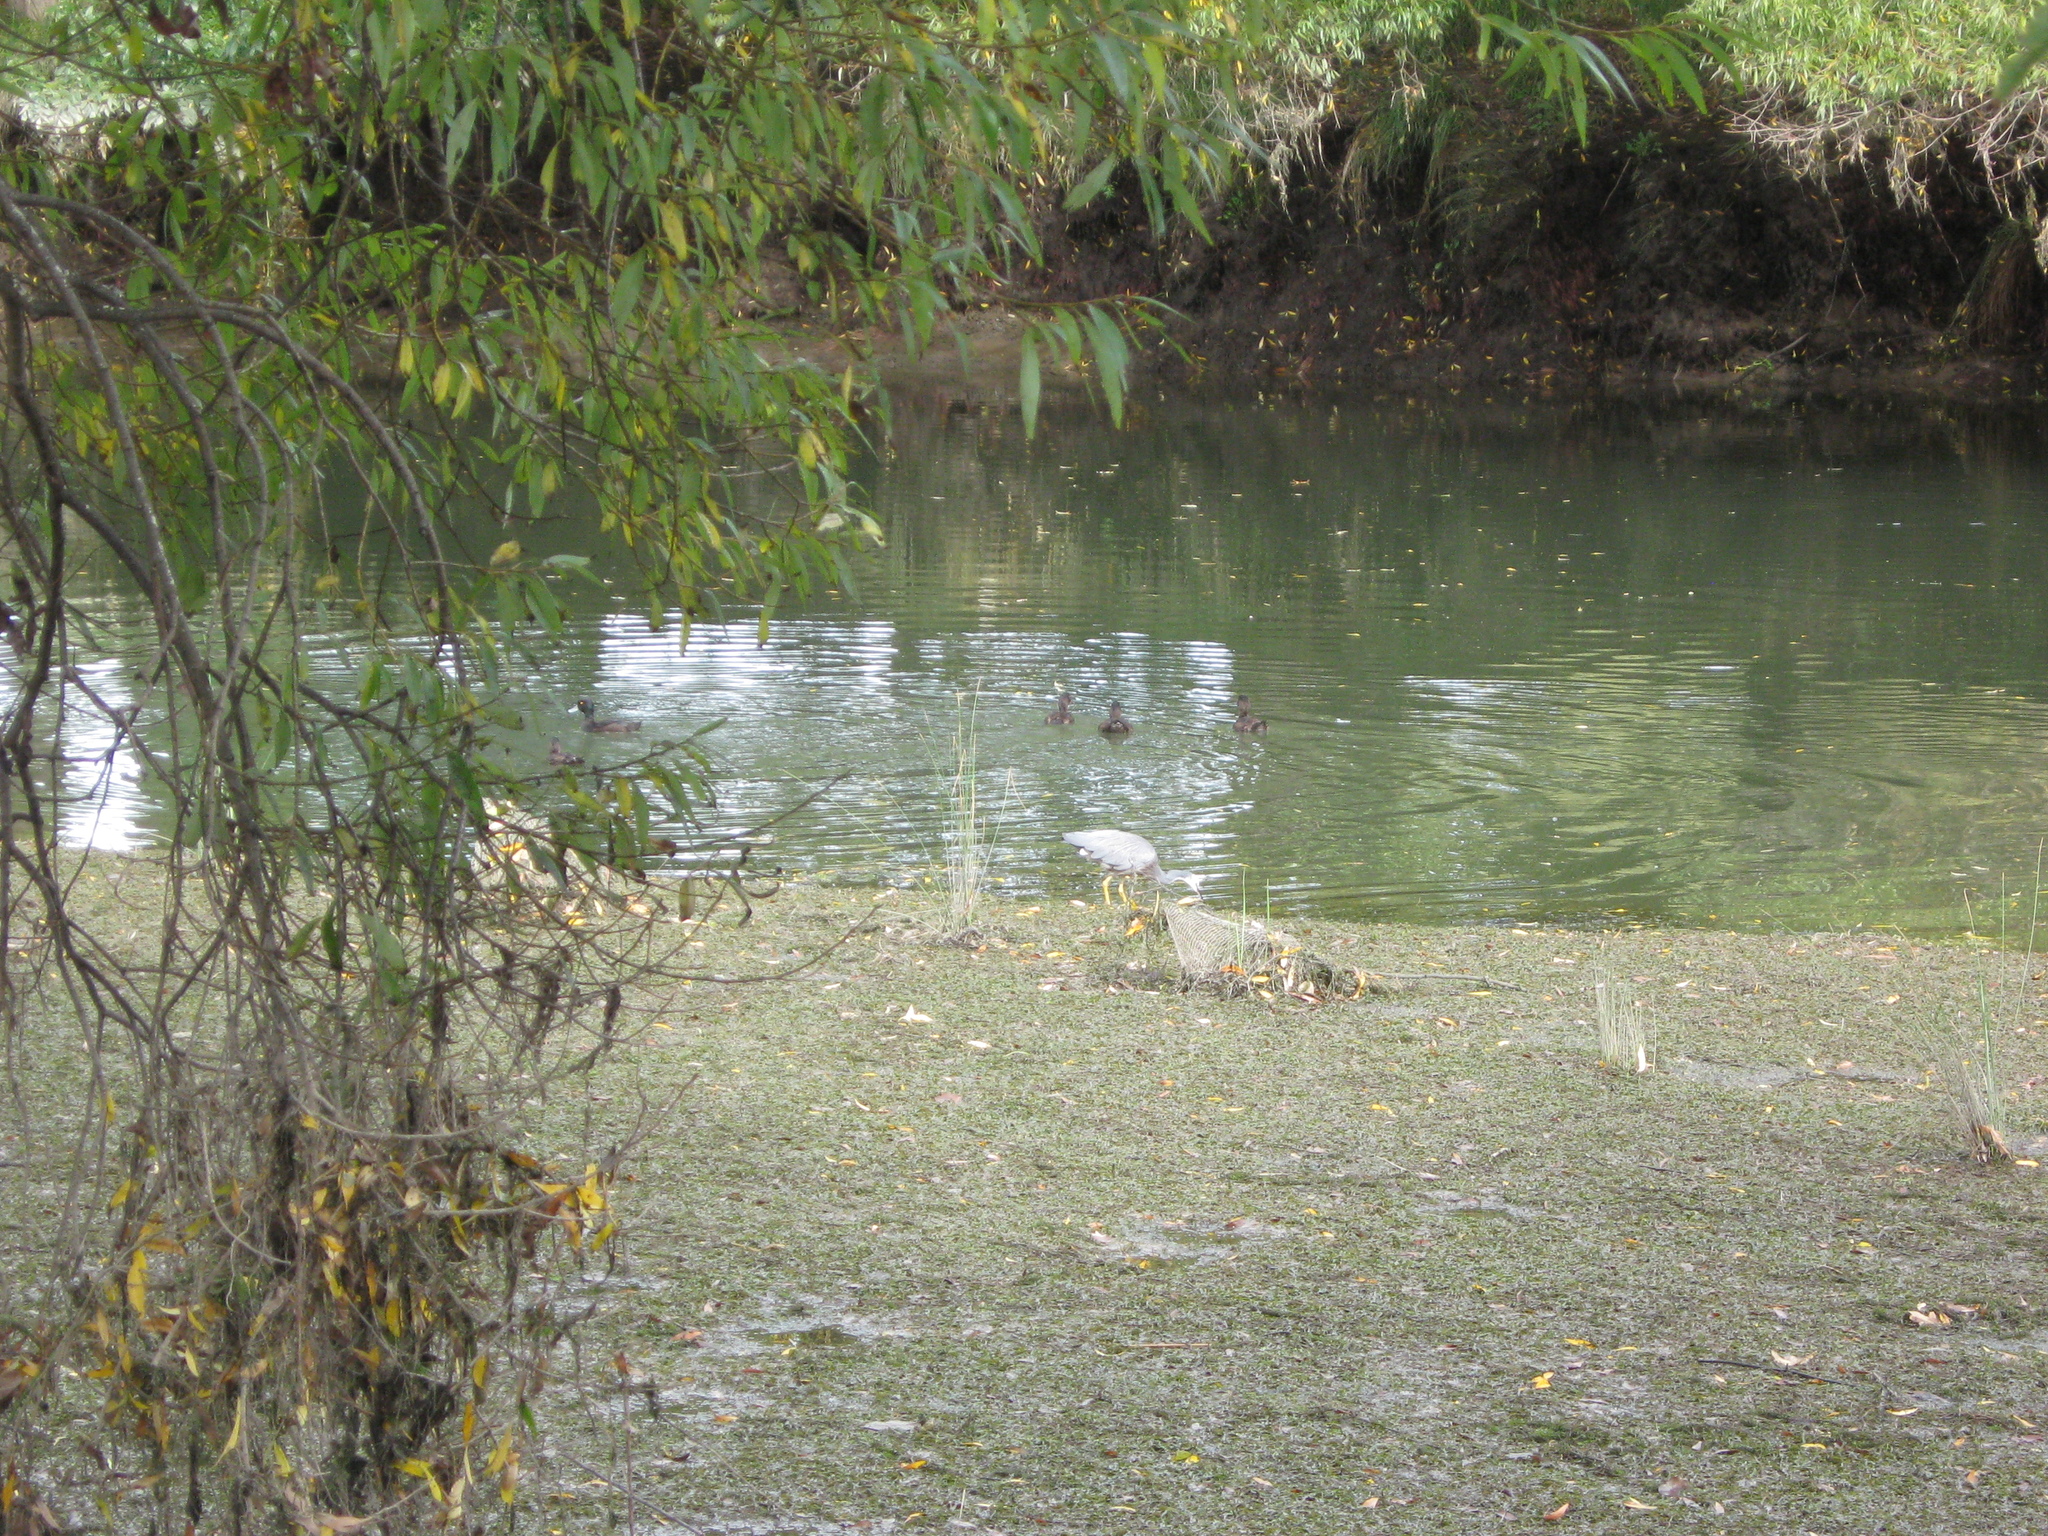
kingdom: Animalia
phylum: Chordata
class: Aves
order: Anseriformes
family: Anatidae
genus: Aythya
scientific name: Aythya novaeseelandiae
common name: New zealand scaup
